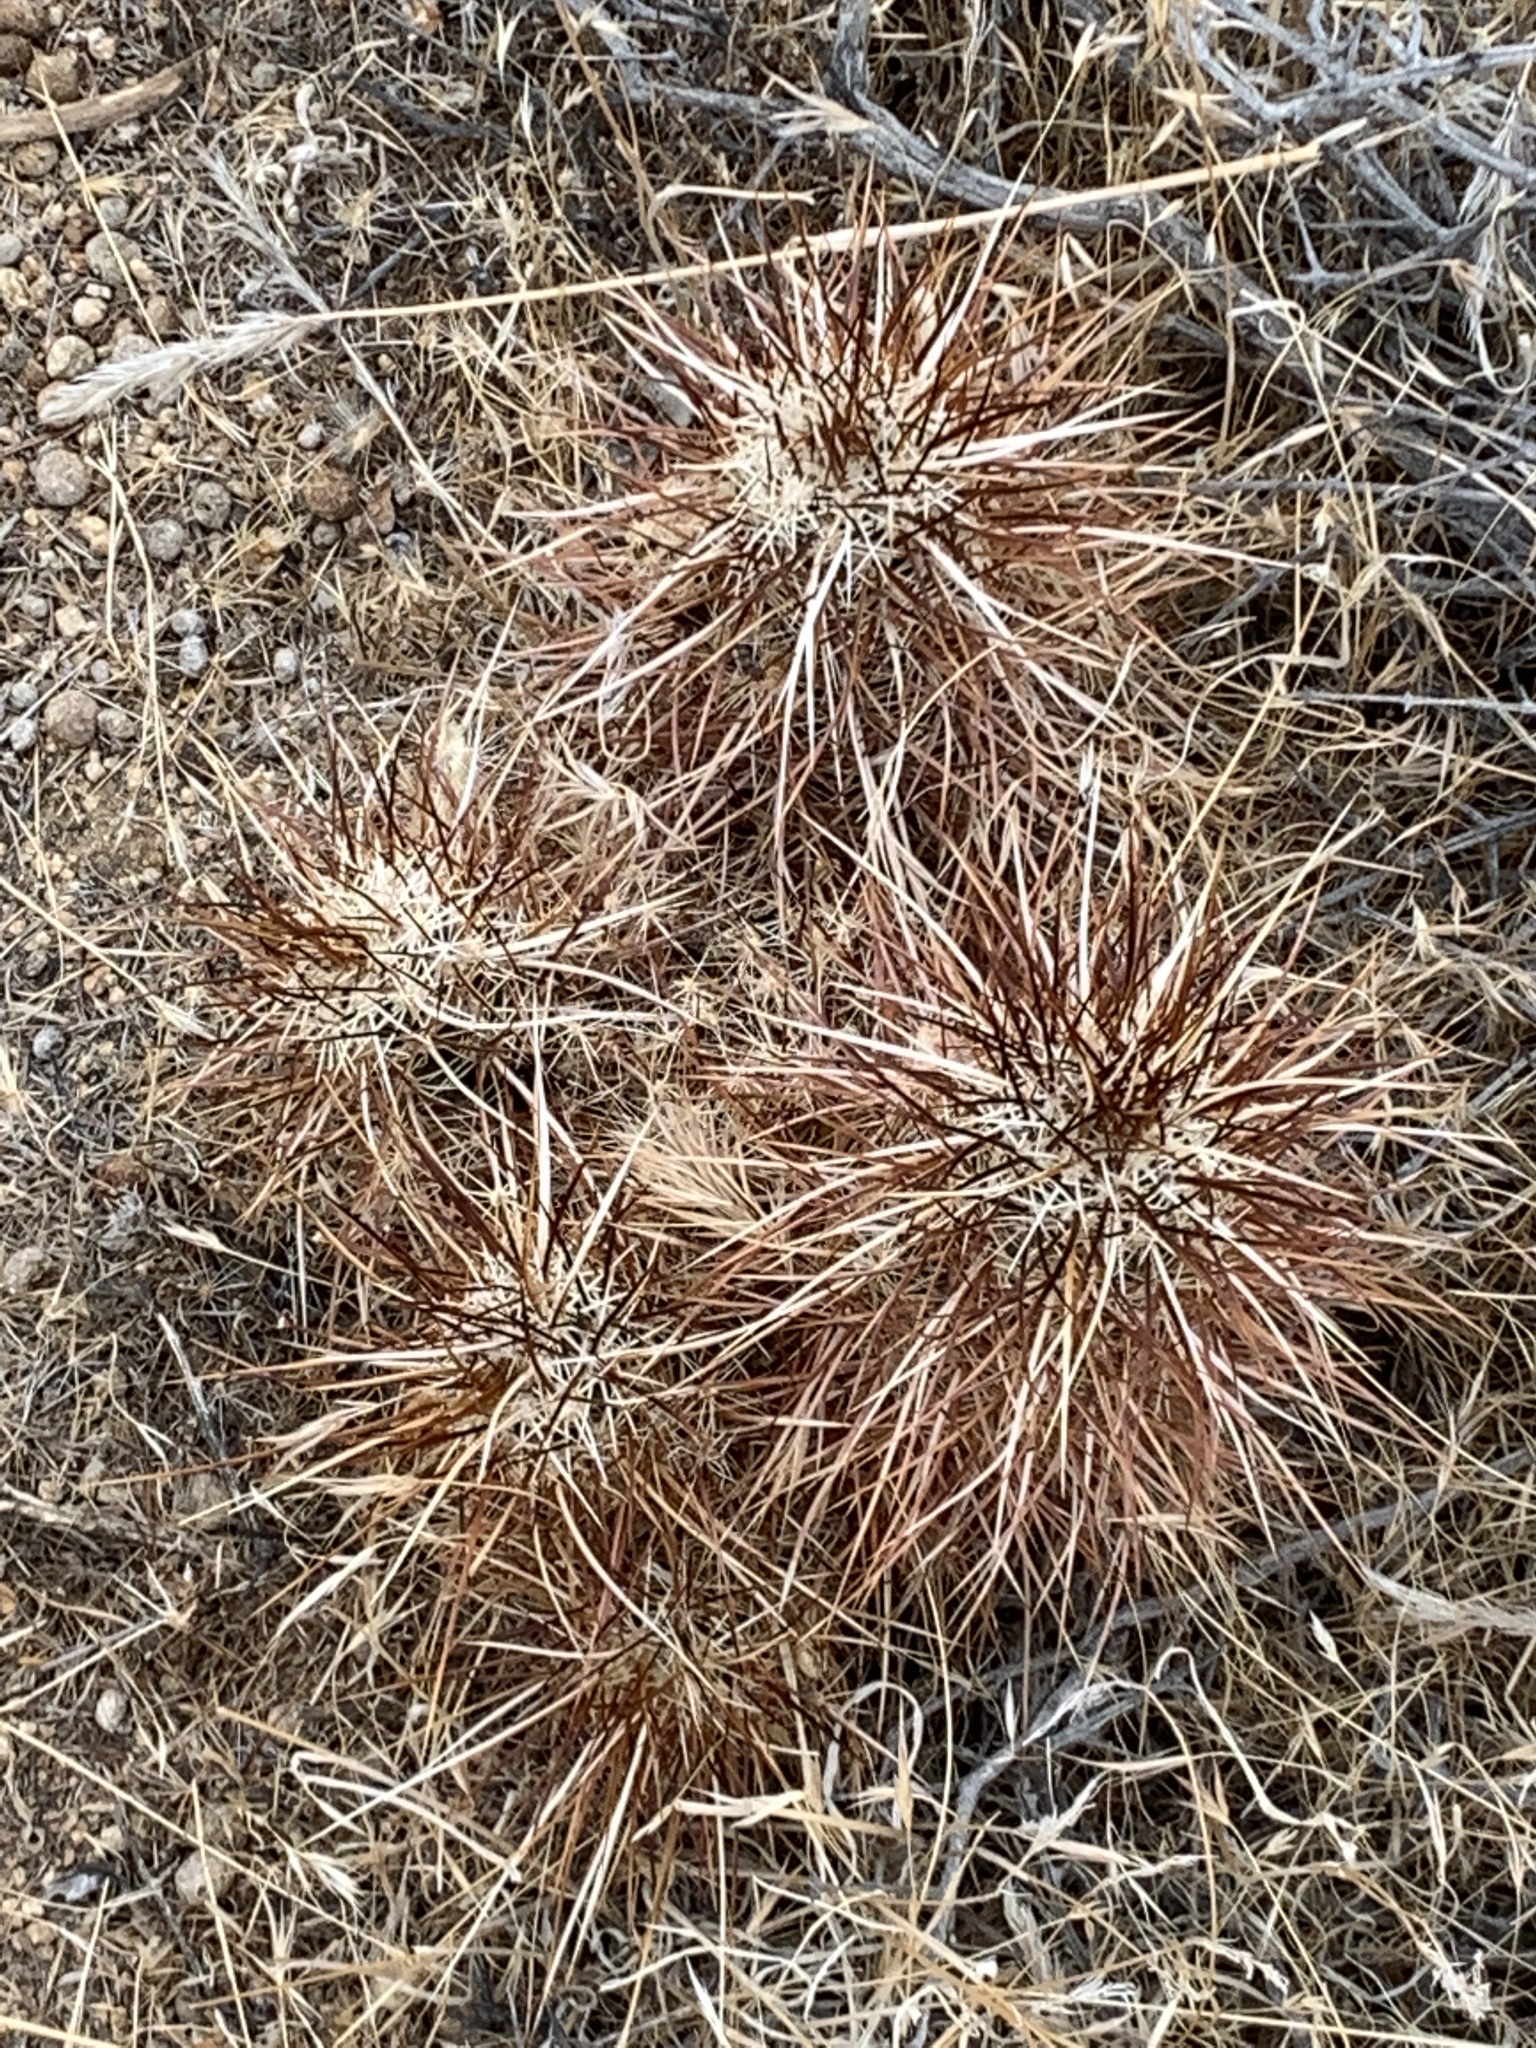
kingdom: Plantae
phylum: Tracheophyta
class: Magnoliopsida
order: Caryophyllales
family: Cactaceae
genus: Echinocereus
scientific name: Echinocereus engelmannii
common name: Engelmann's hedgehog cactus
